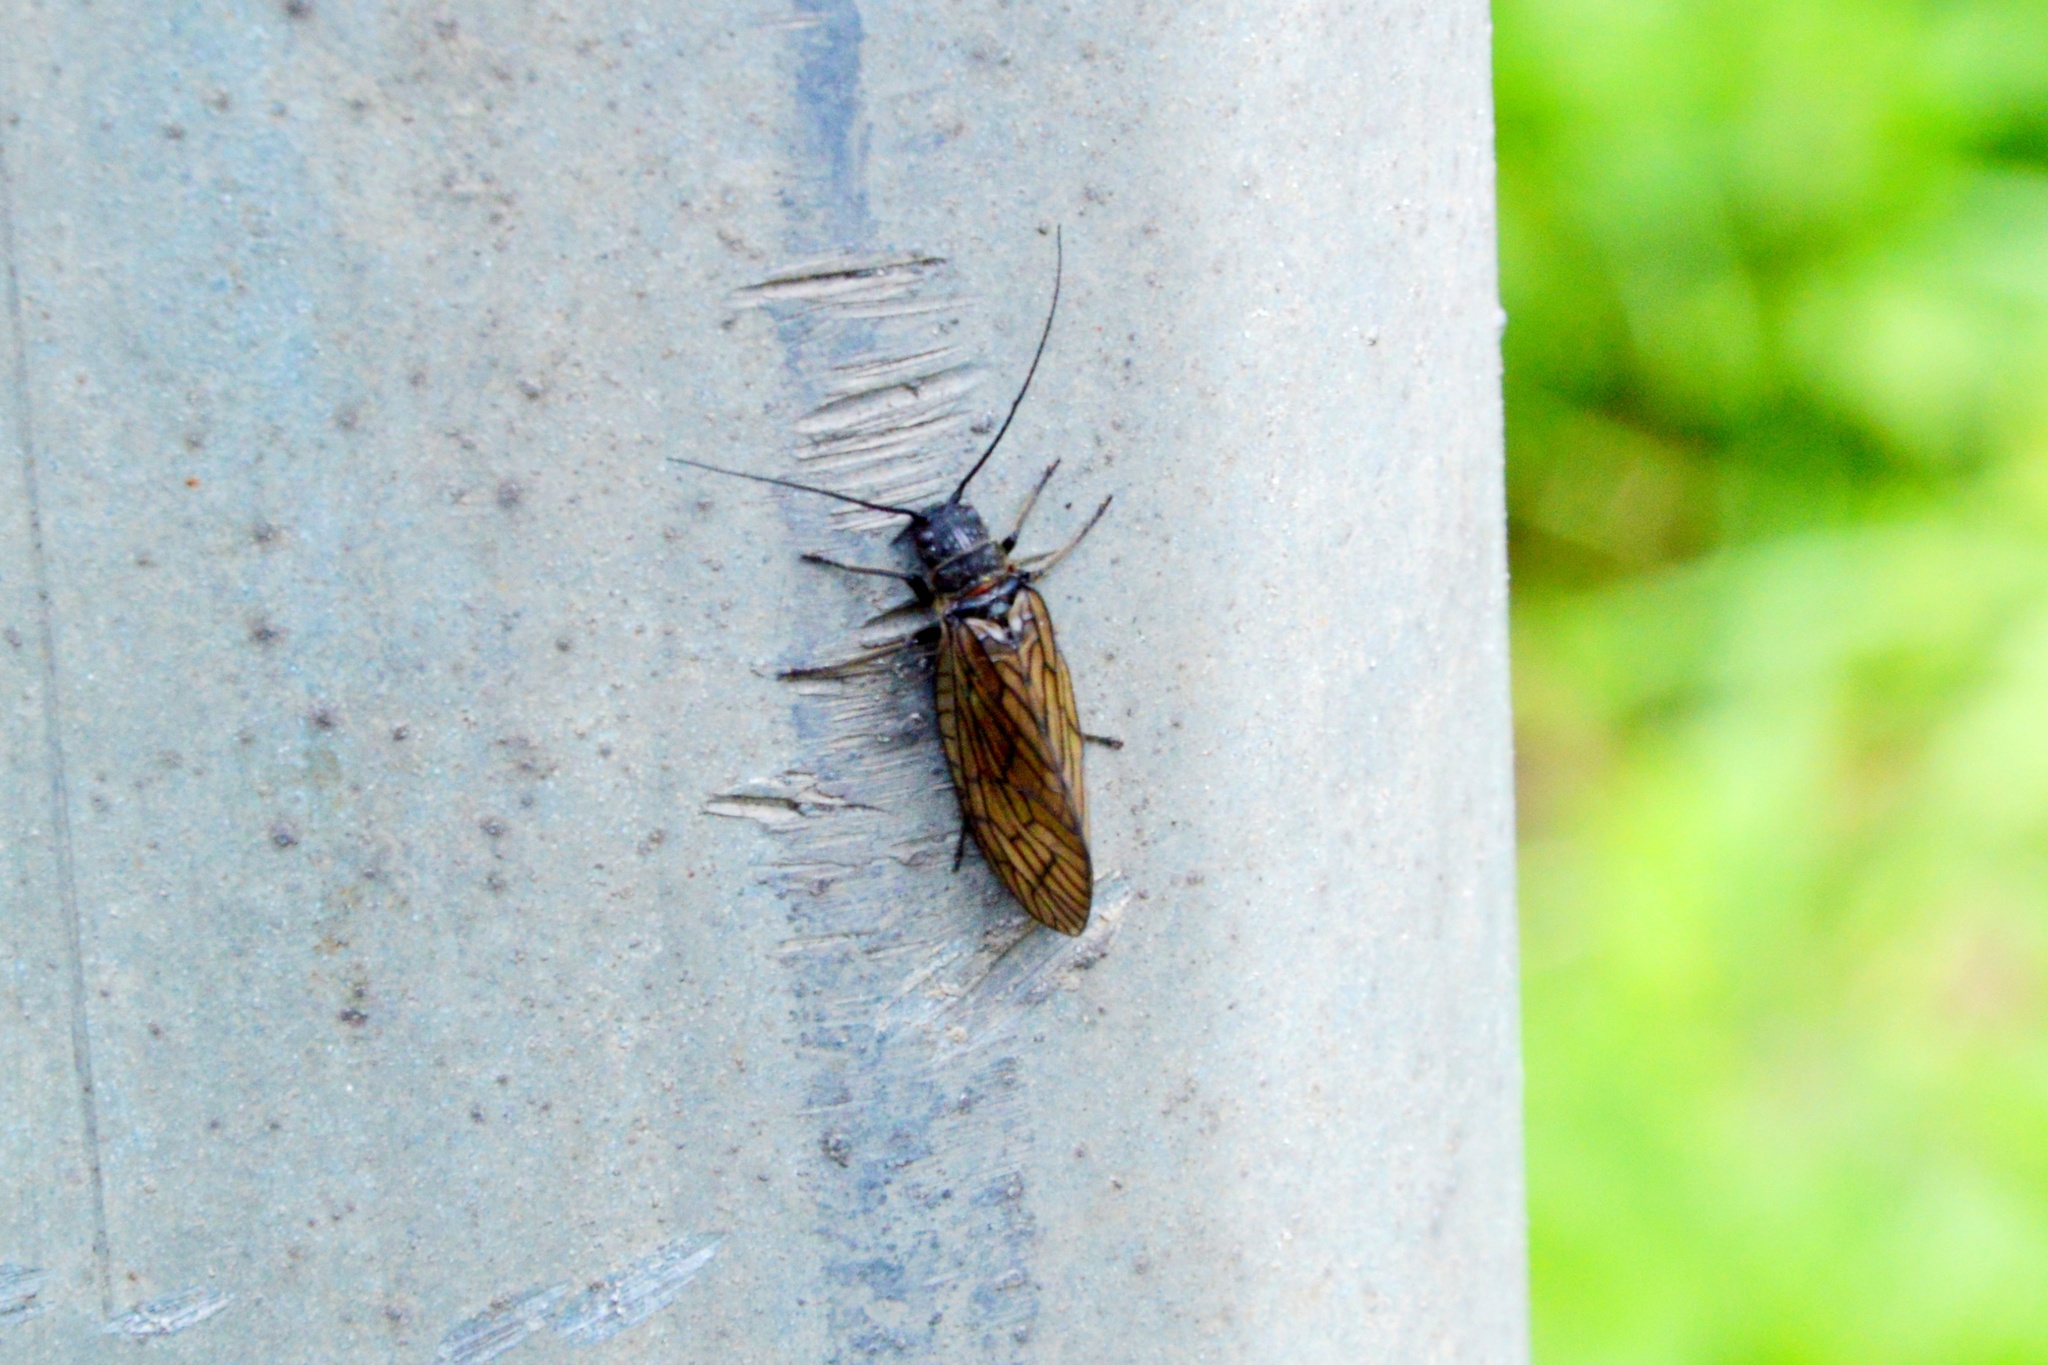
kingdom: Animalia
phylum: Arthropoda
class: Insecta
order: Megaloptera
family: Sialidae
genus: Sialis
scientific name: Sialis
